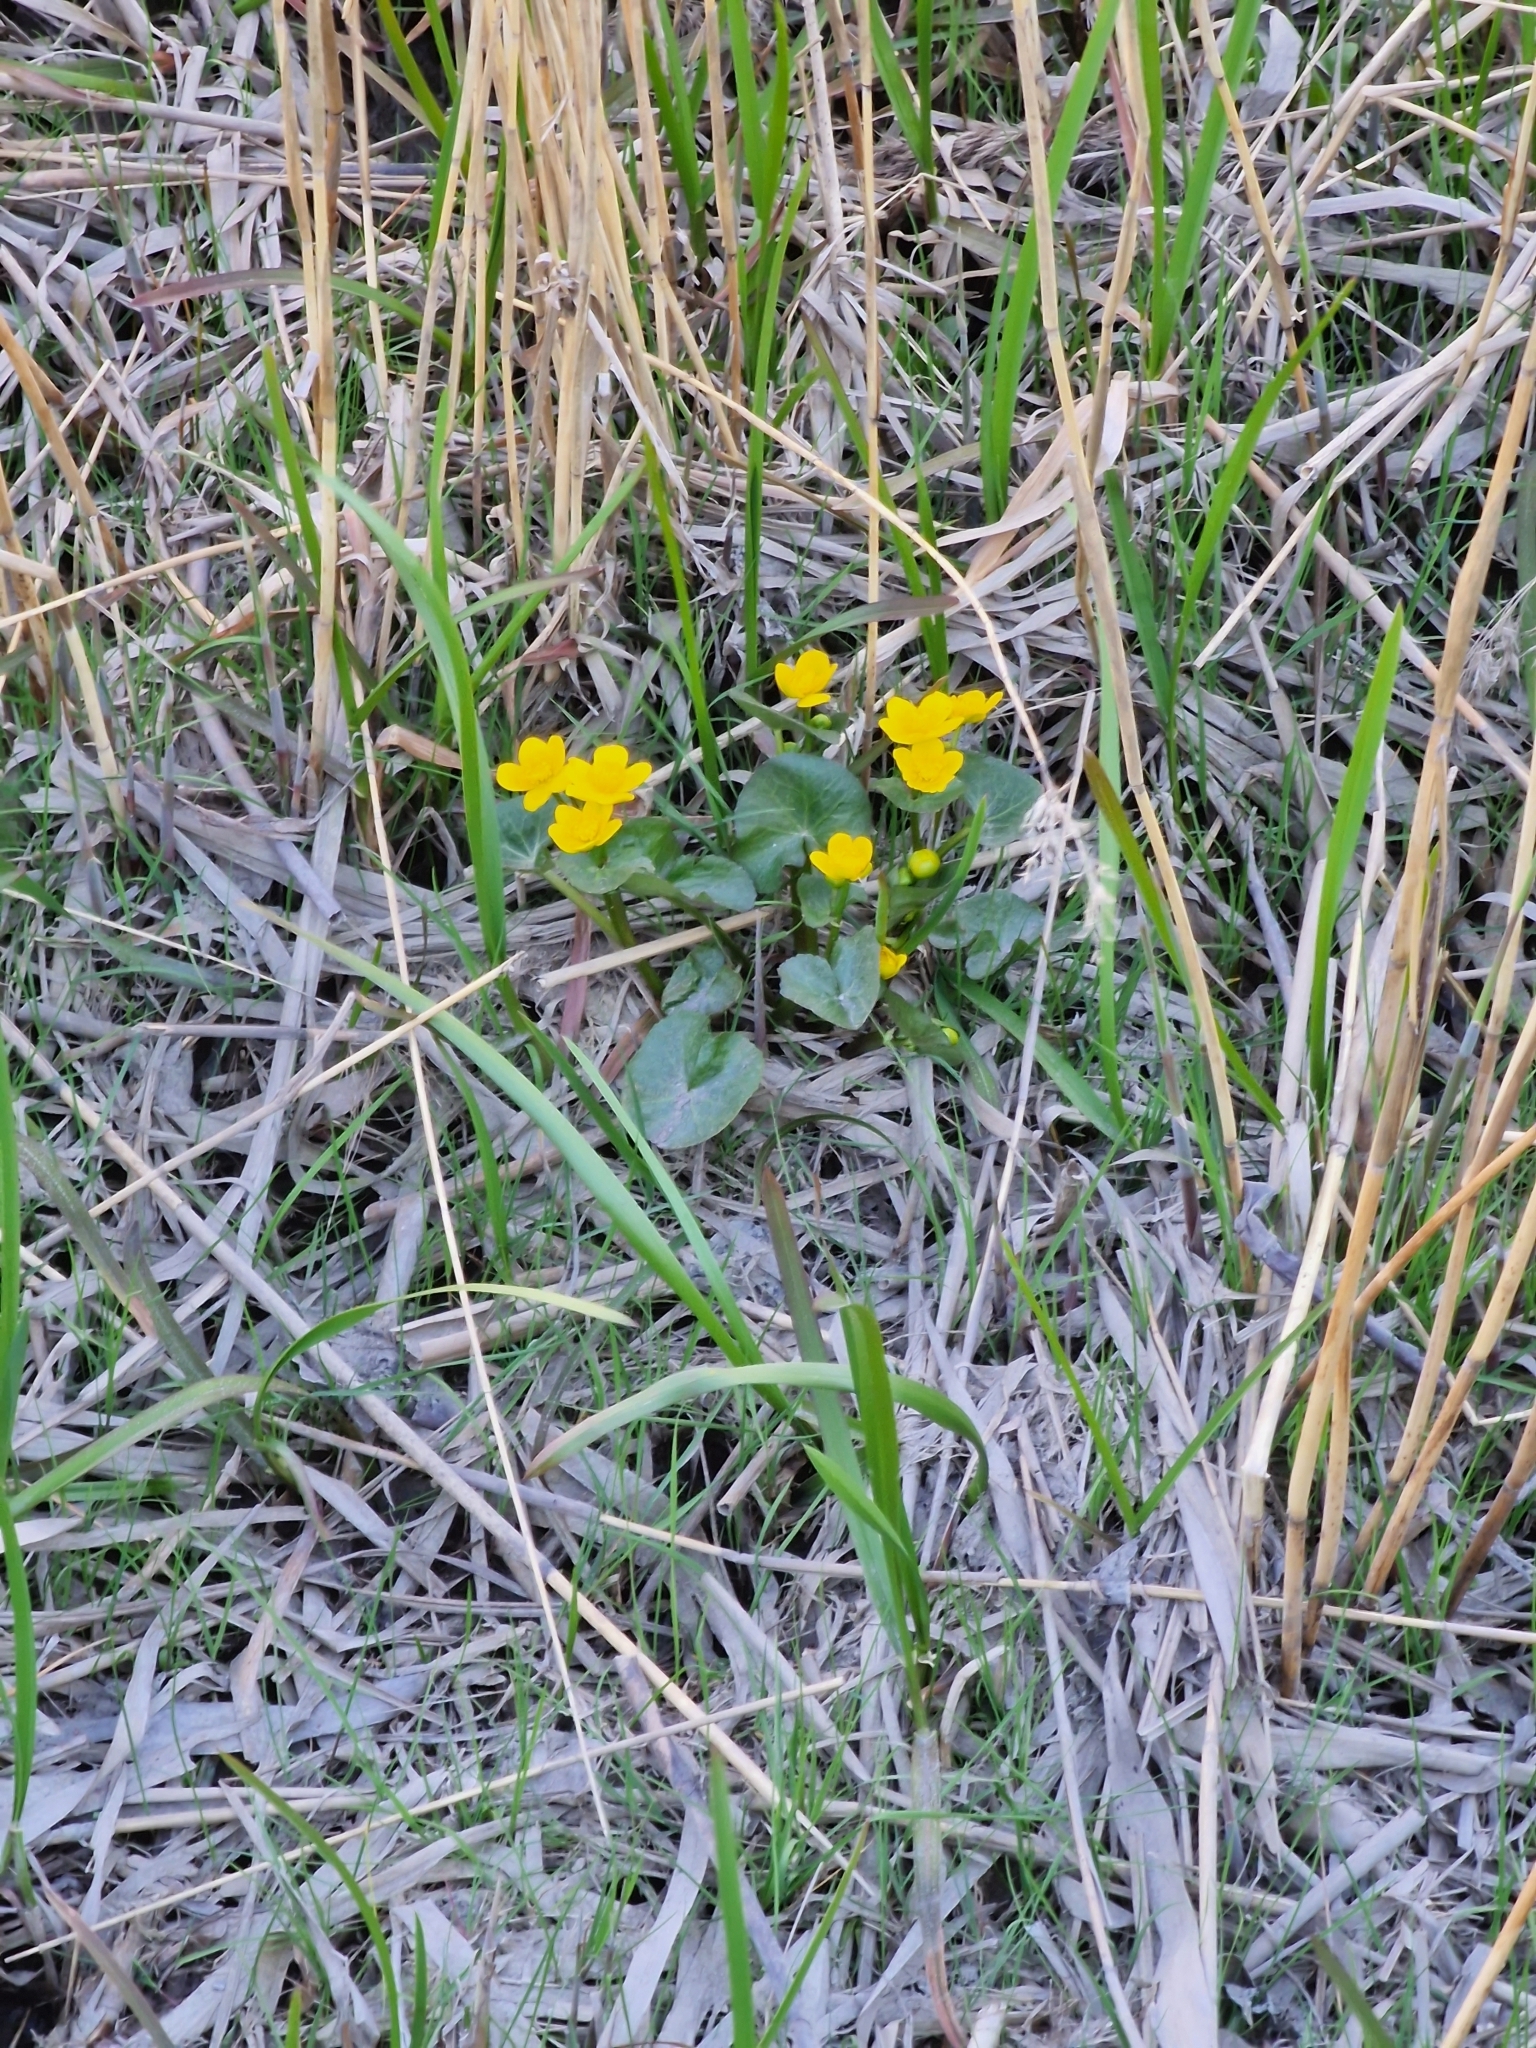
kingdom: Plantae
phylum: Tracheophyta
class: Magnoliopsida
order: Ranunculales
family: Ranunculaceae
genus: Caltha
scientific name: Caltha palustris
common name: Marsh marigold
